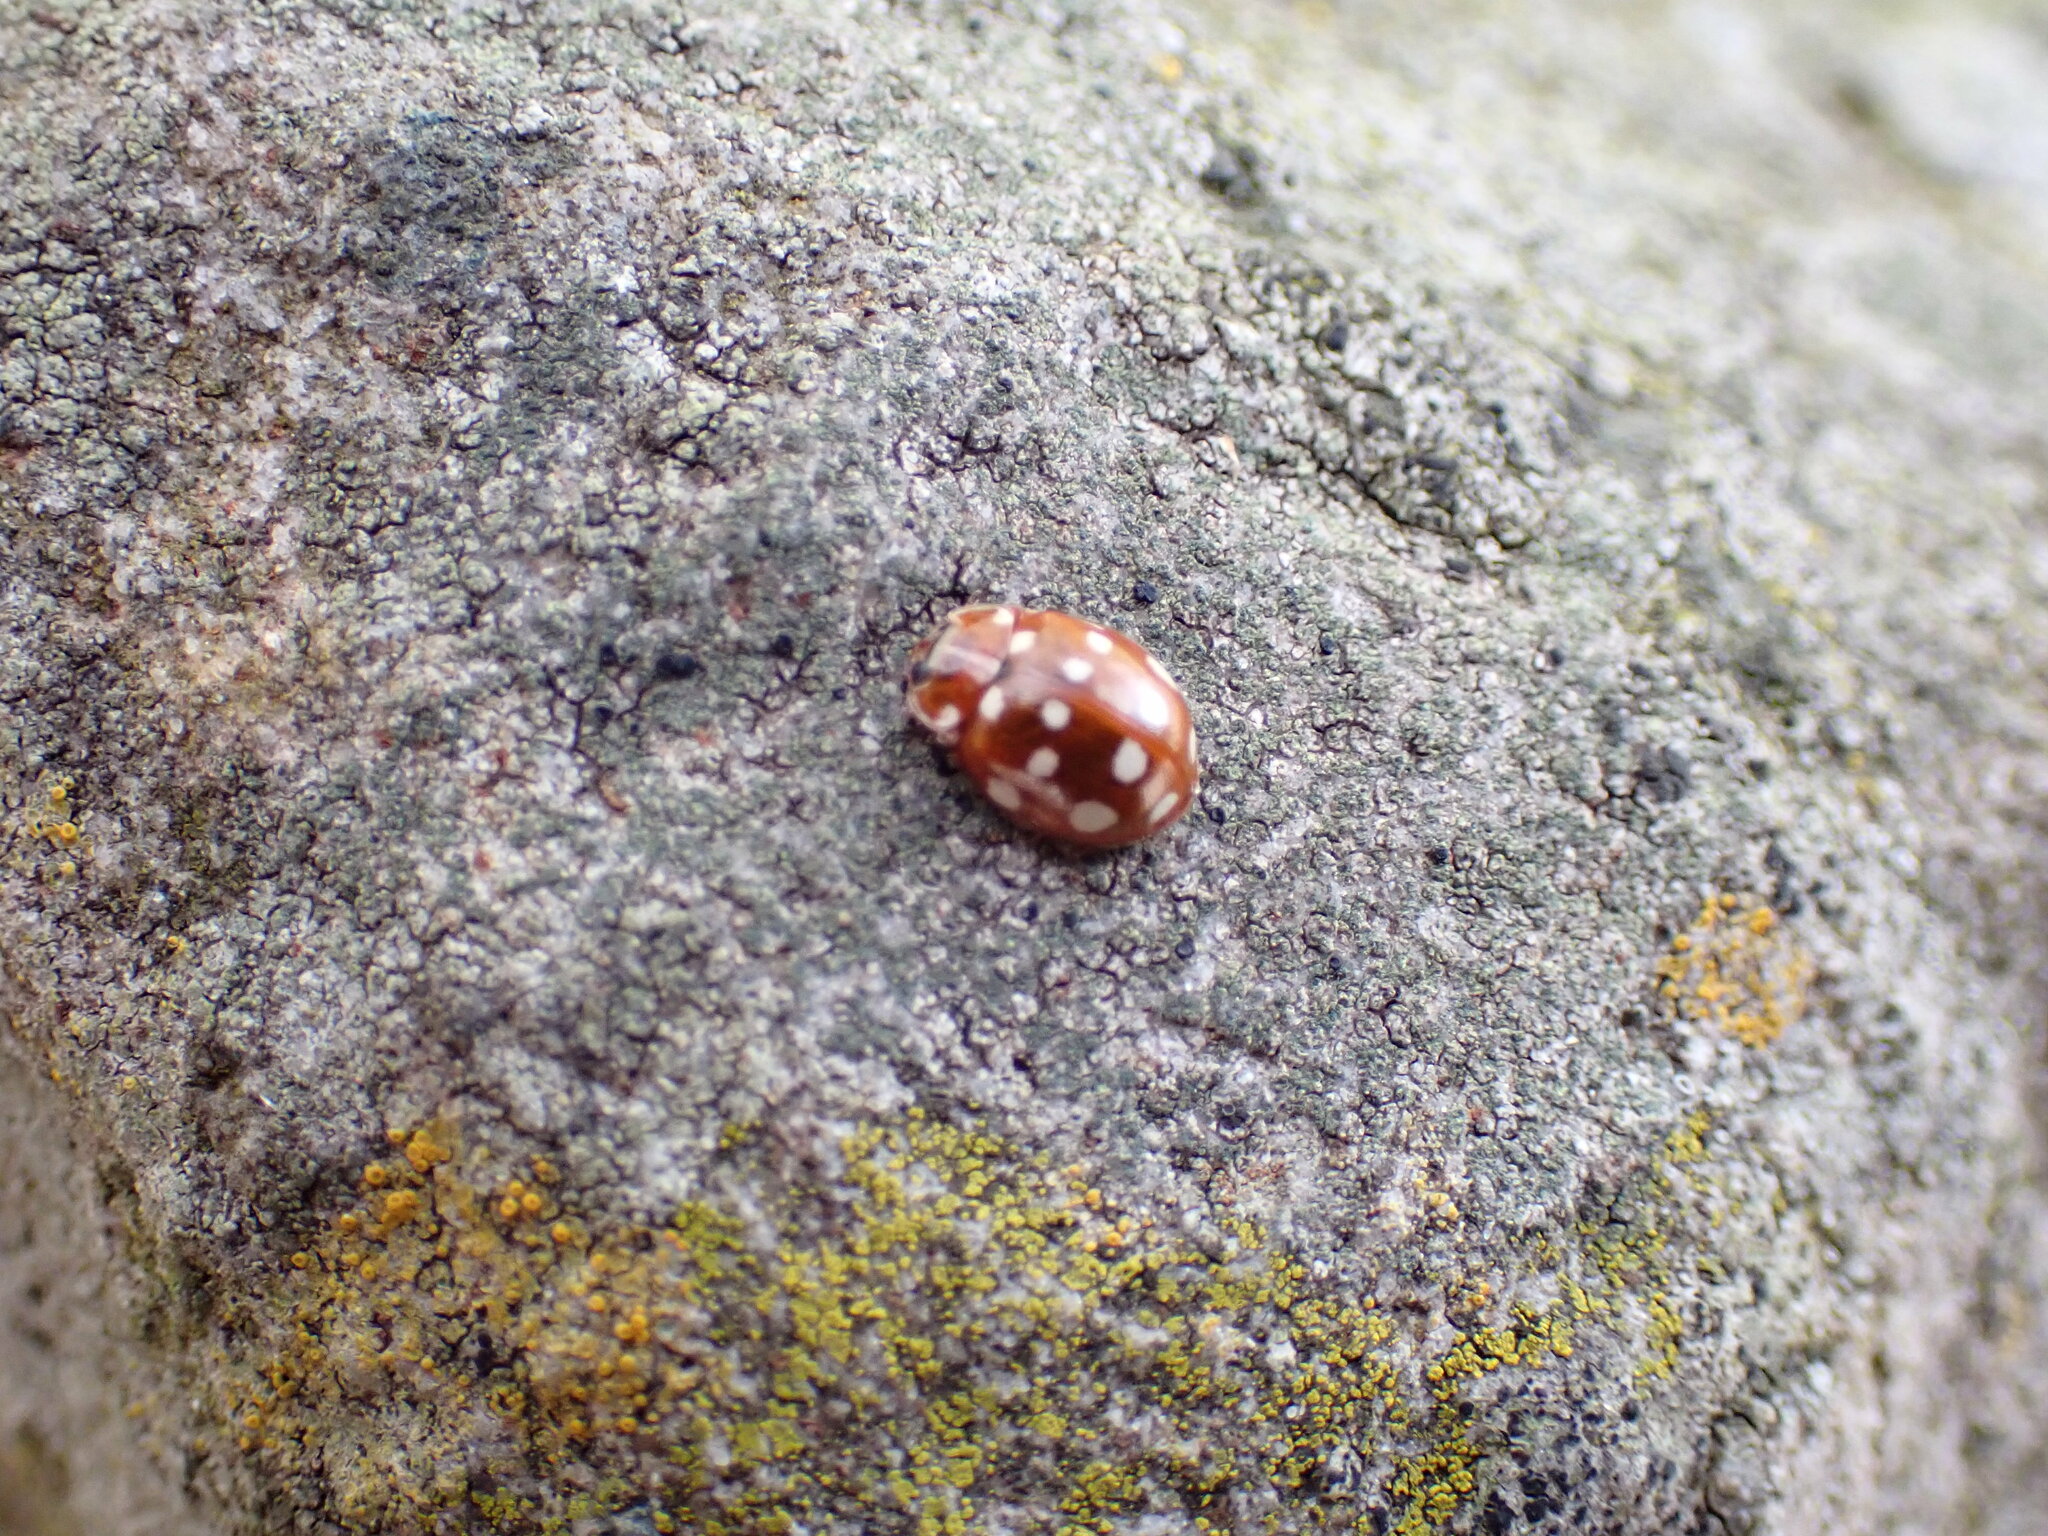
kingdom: Animalia
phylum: Arthropoda
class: Insecta
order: Coleoptera
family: Coccinellidae
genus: Calvia
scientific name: Calvia quatuordecimguttata
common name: Cream-spot ladybird
